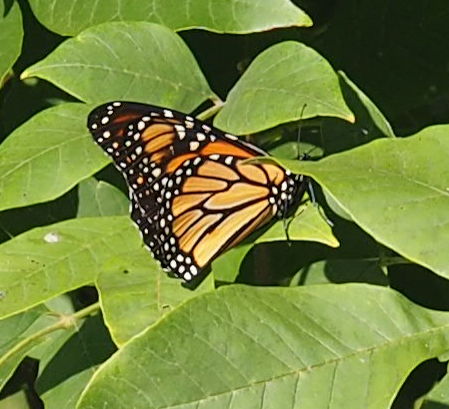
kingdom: Animalia
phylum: Arthropoda
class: Insecta
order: Lepidoptera
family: Nymphalidae
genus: Danaus
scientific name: Danaus plexippus
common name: Monarch
